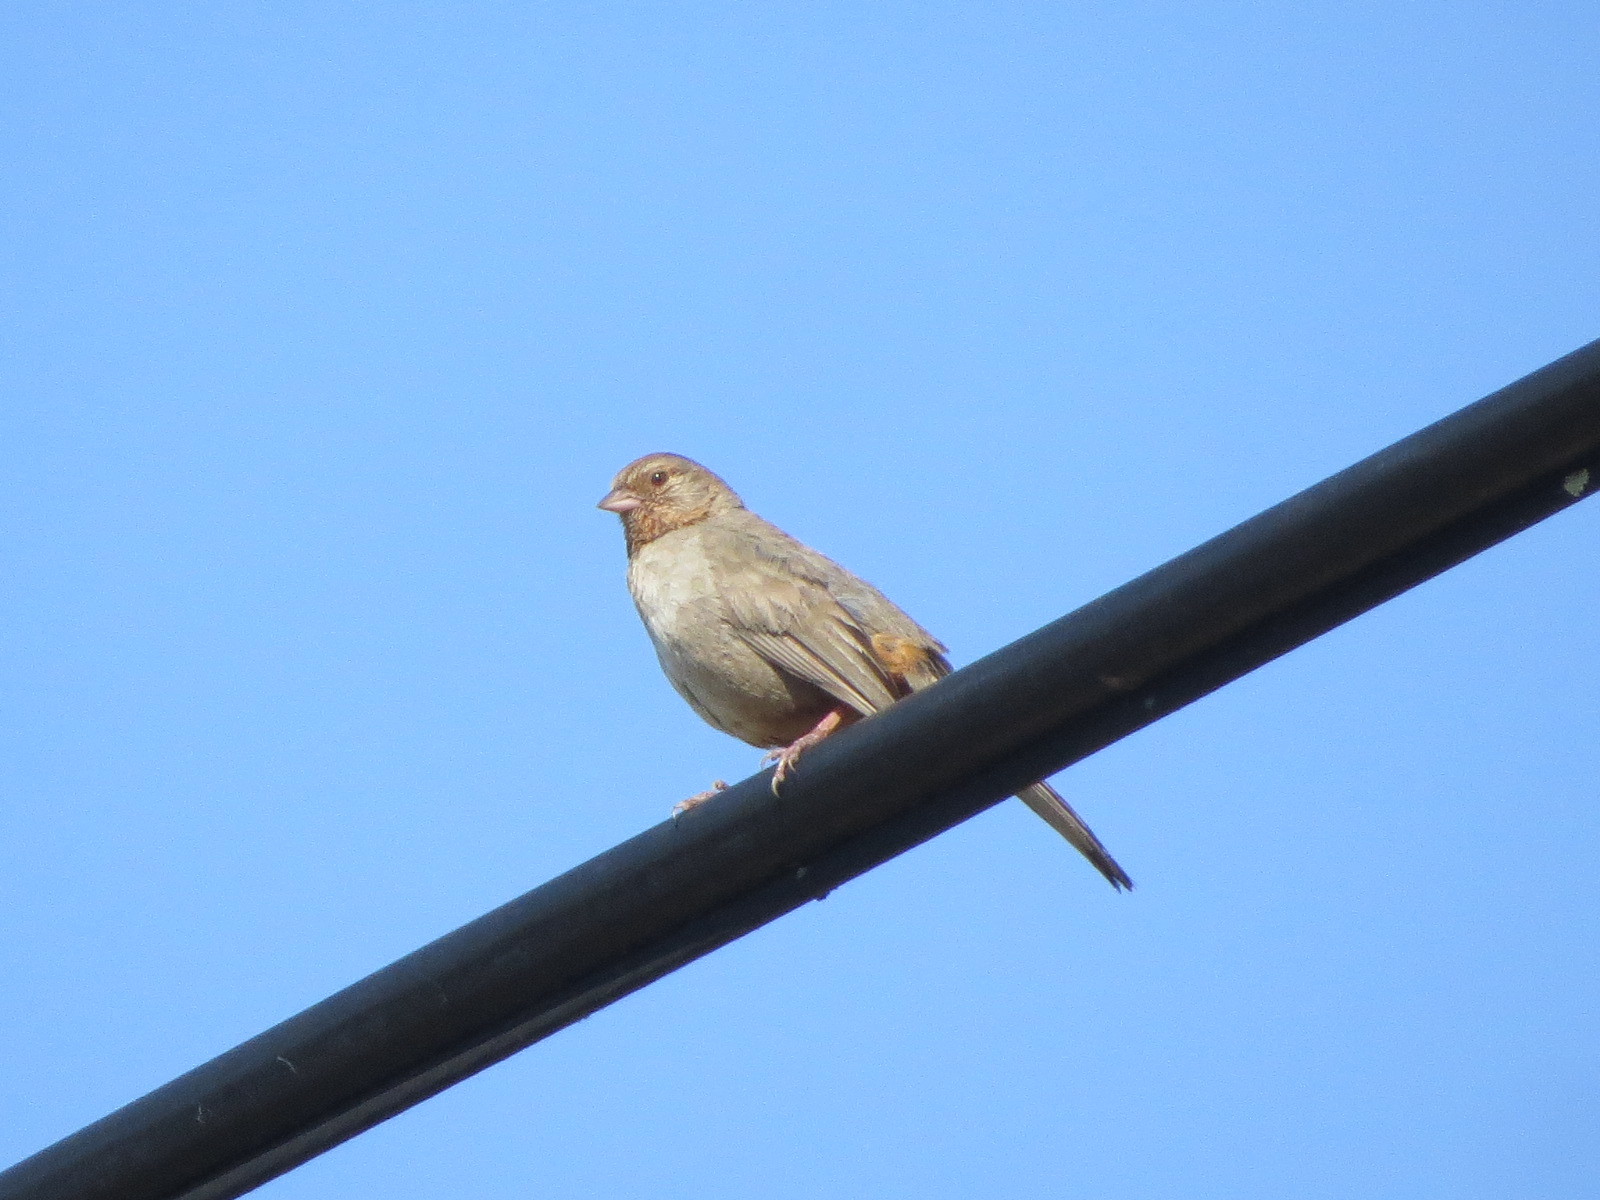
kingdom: Animalia
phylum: Chordata
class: Aves
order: Passeriformes
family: Passerellidae
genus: Melozone
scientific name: Melozone crissalis
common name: California towhee
